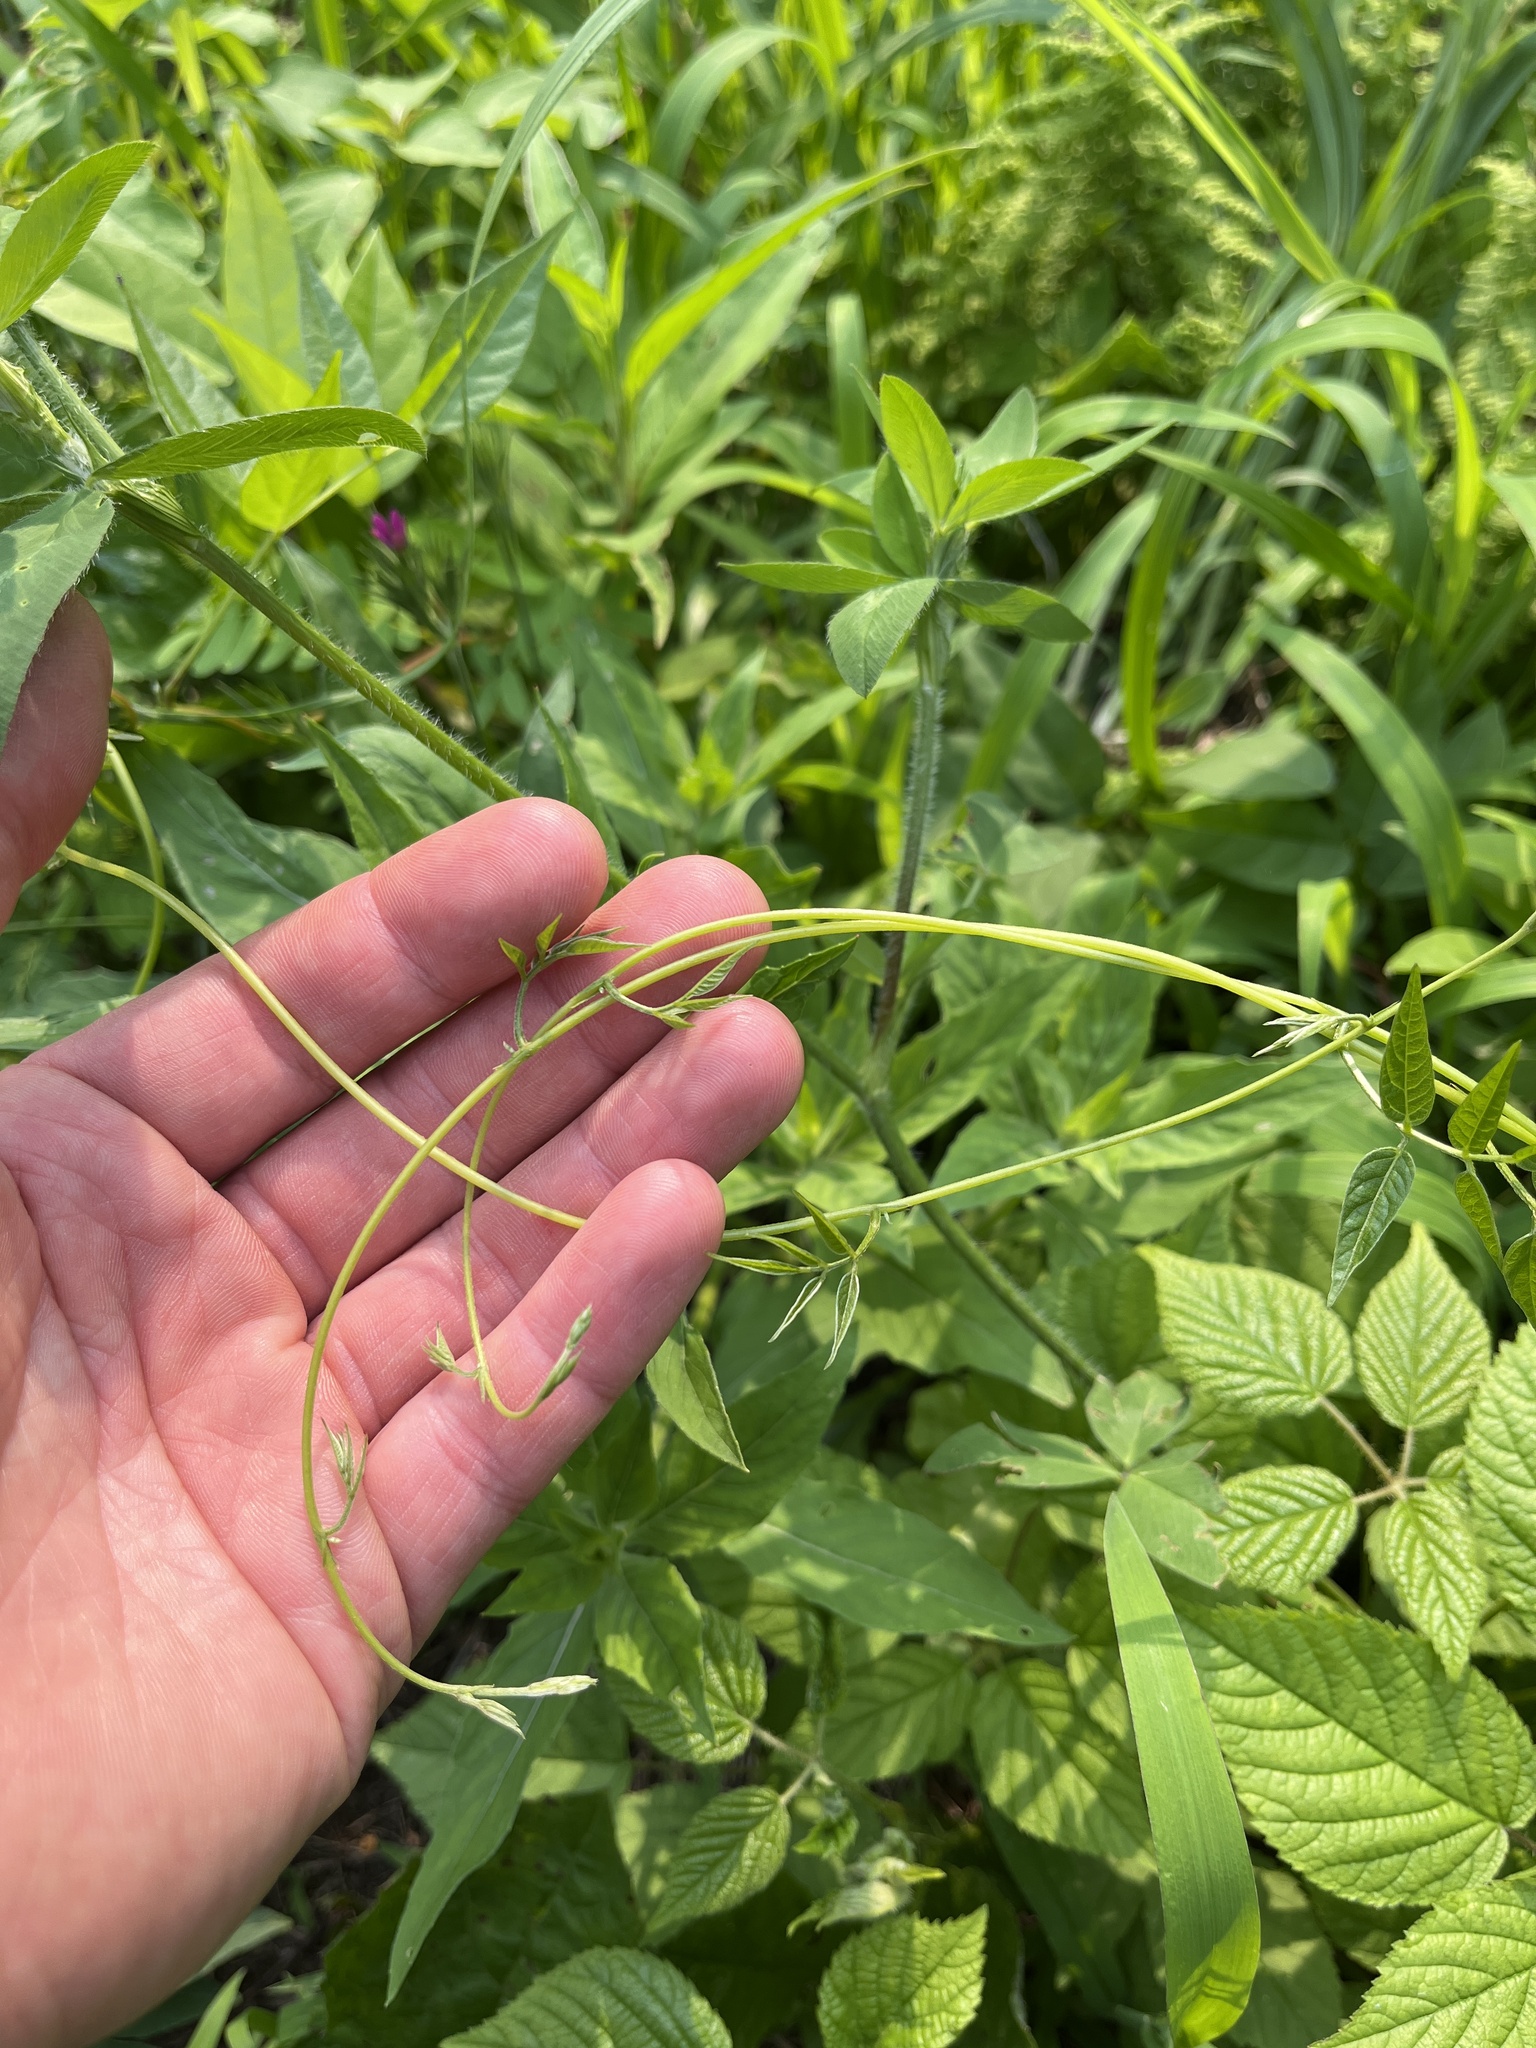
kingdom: Plantae
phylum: Tracheophyta
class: Magnoliopsida
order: Fabales
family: Fabaceae
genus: Apios
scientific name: Apios americana
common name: American potato-bean
